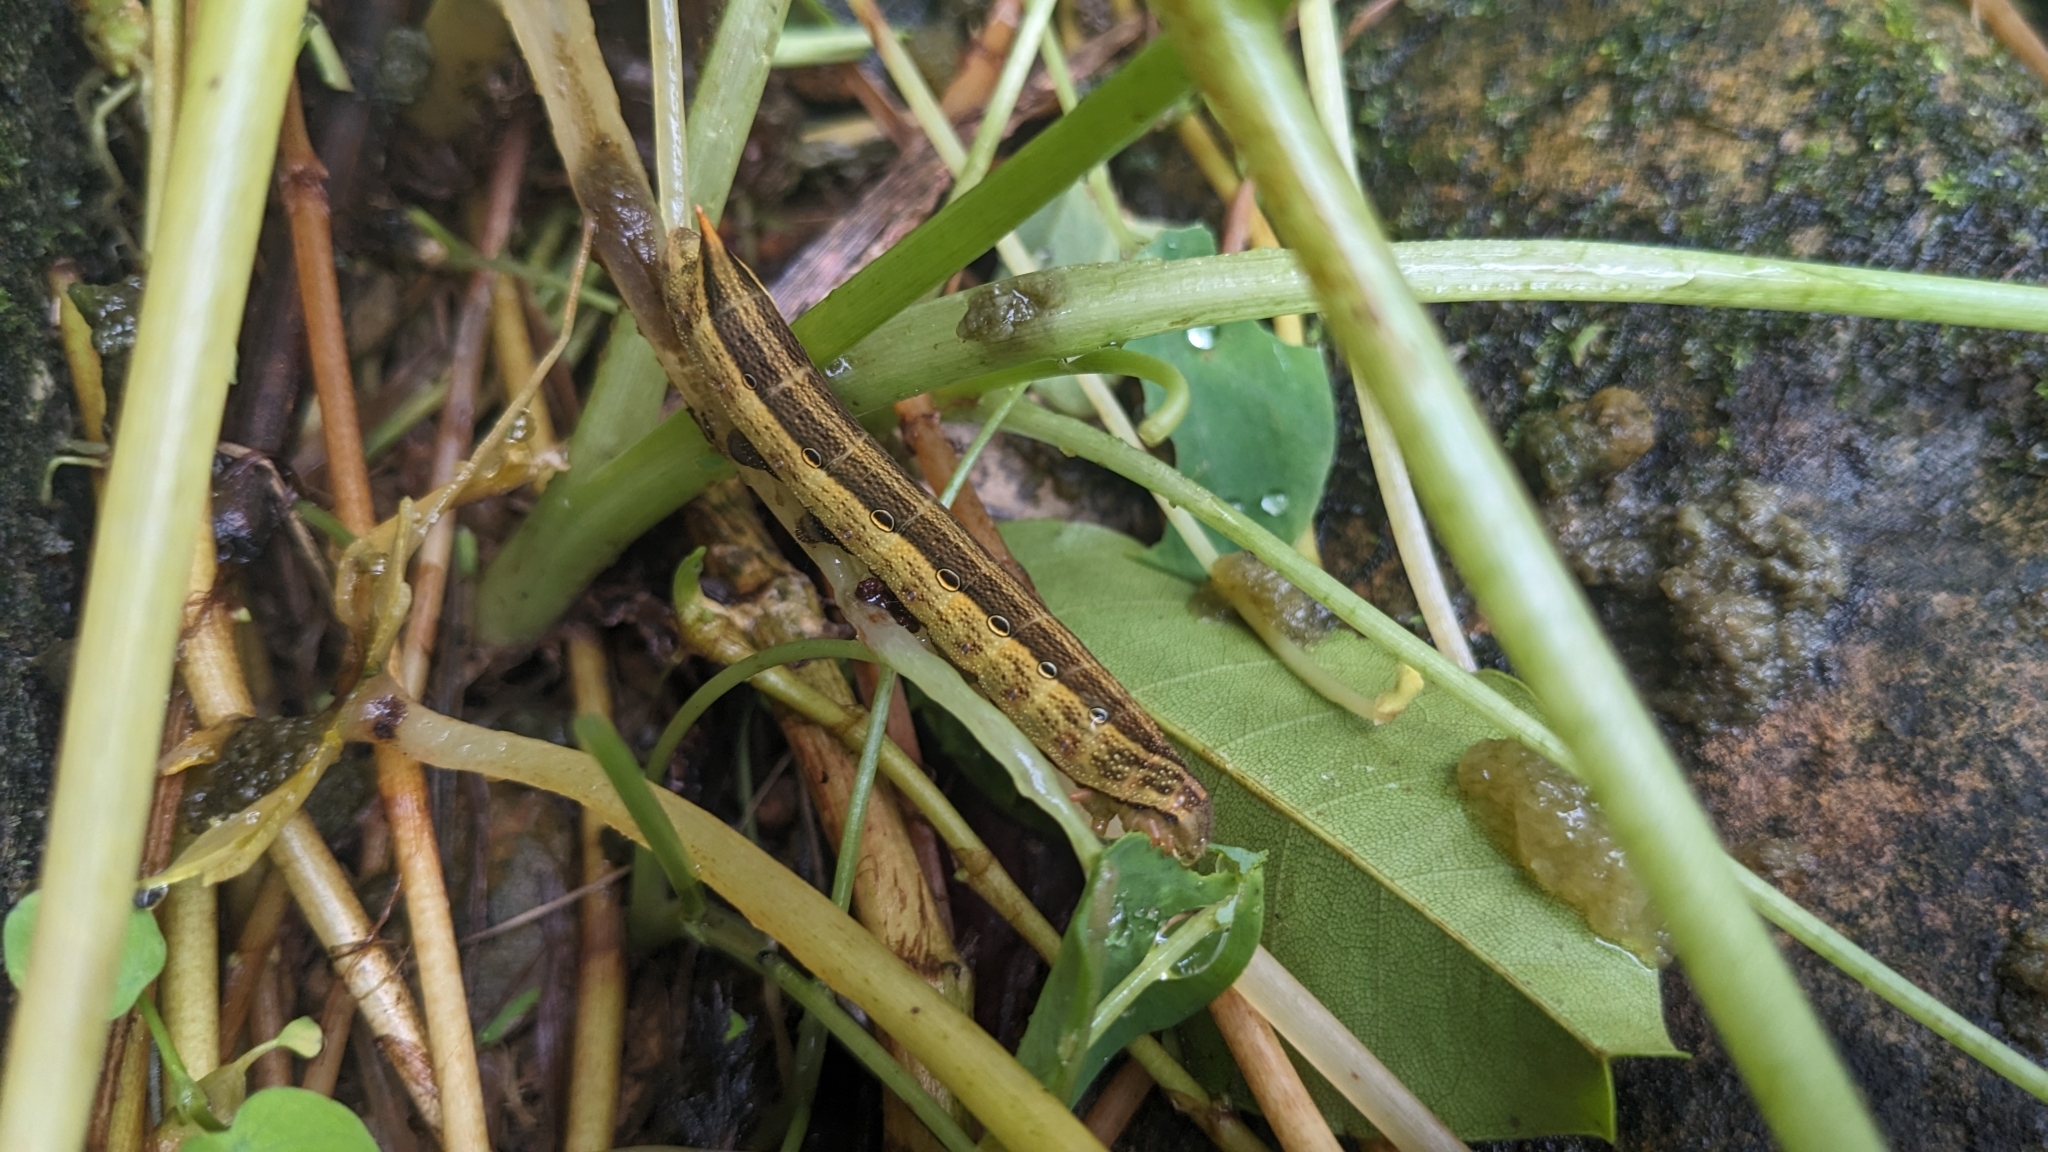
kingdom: Animalia
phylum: Arthropoda
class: Insecta
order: Lepidoptera
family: Sphingidae
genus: Theretra
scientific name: Theretra silhetensis
